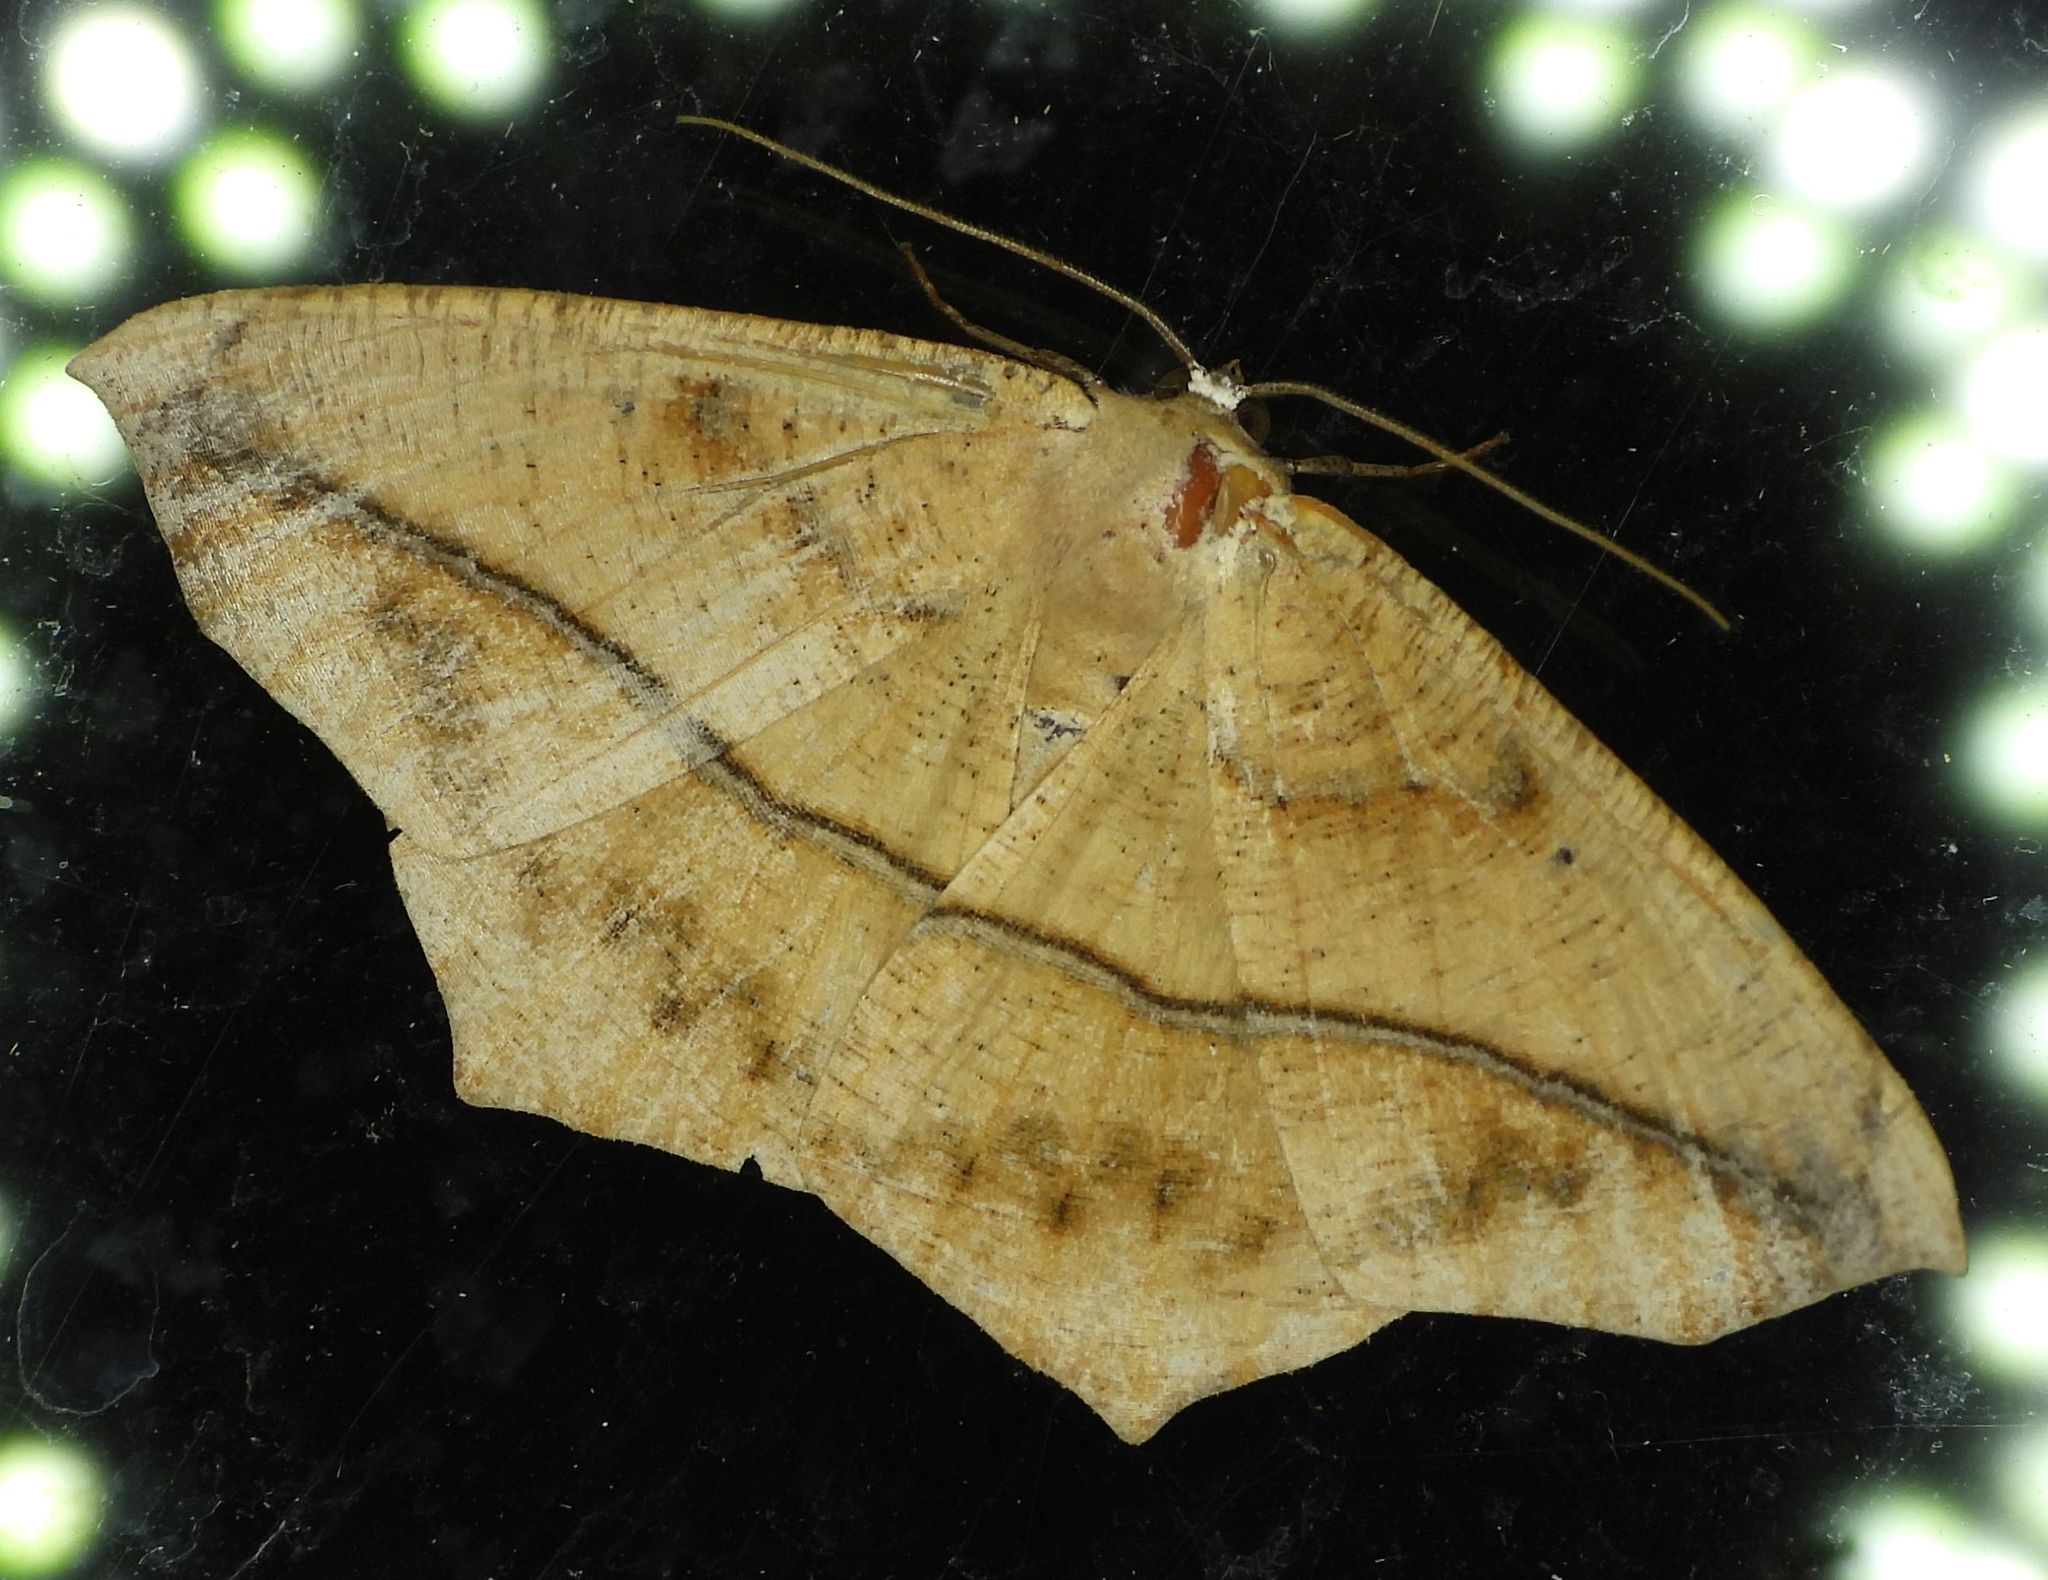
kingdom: Animalia
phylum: Arthropoda
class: Insecta
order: Lepidoptera
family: Geometridae
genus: Prochoerodes
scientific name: Prochoerodes lineola
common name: Large maple spanworm
